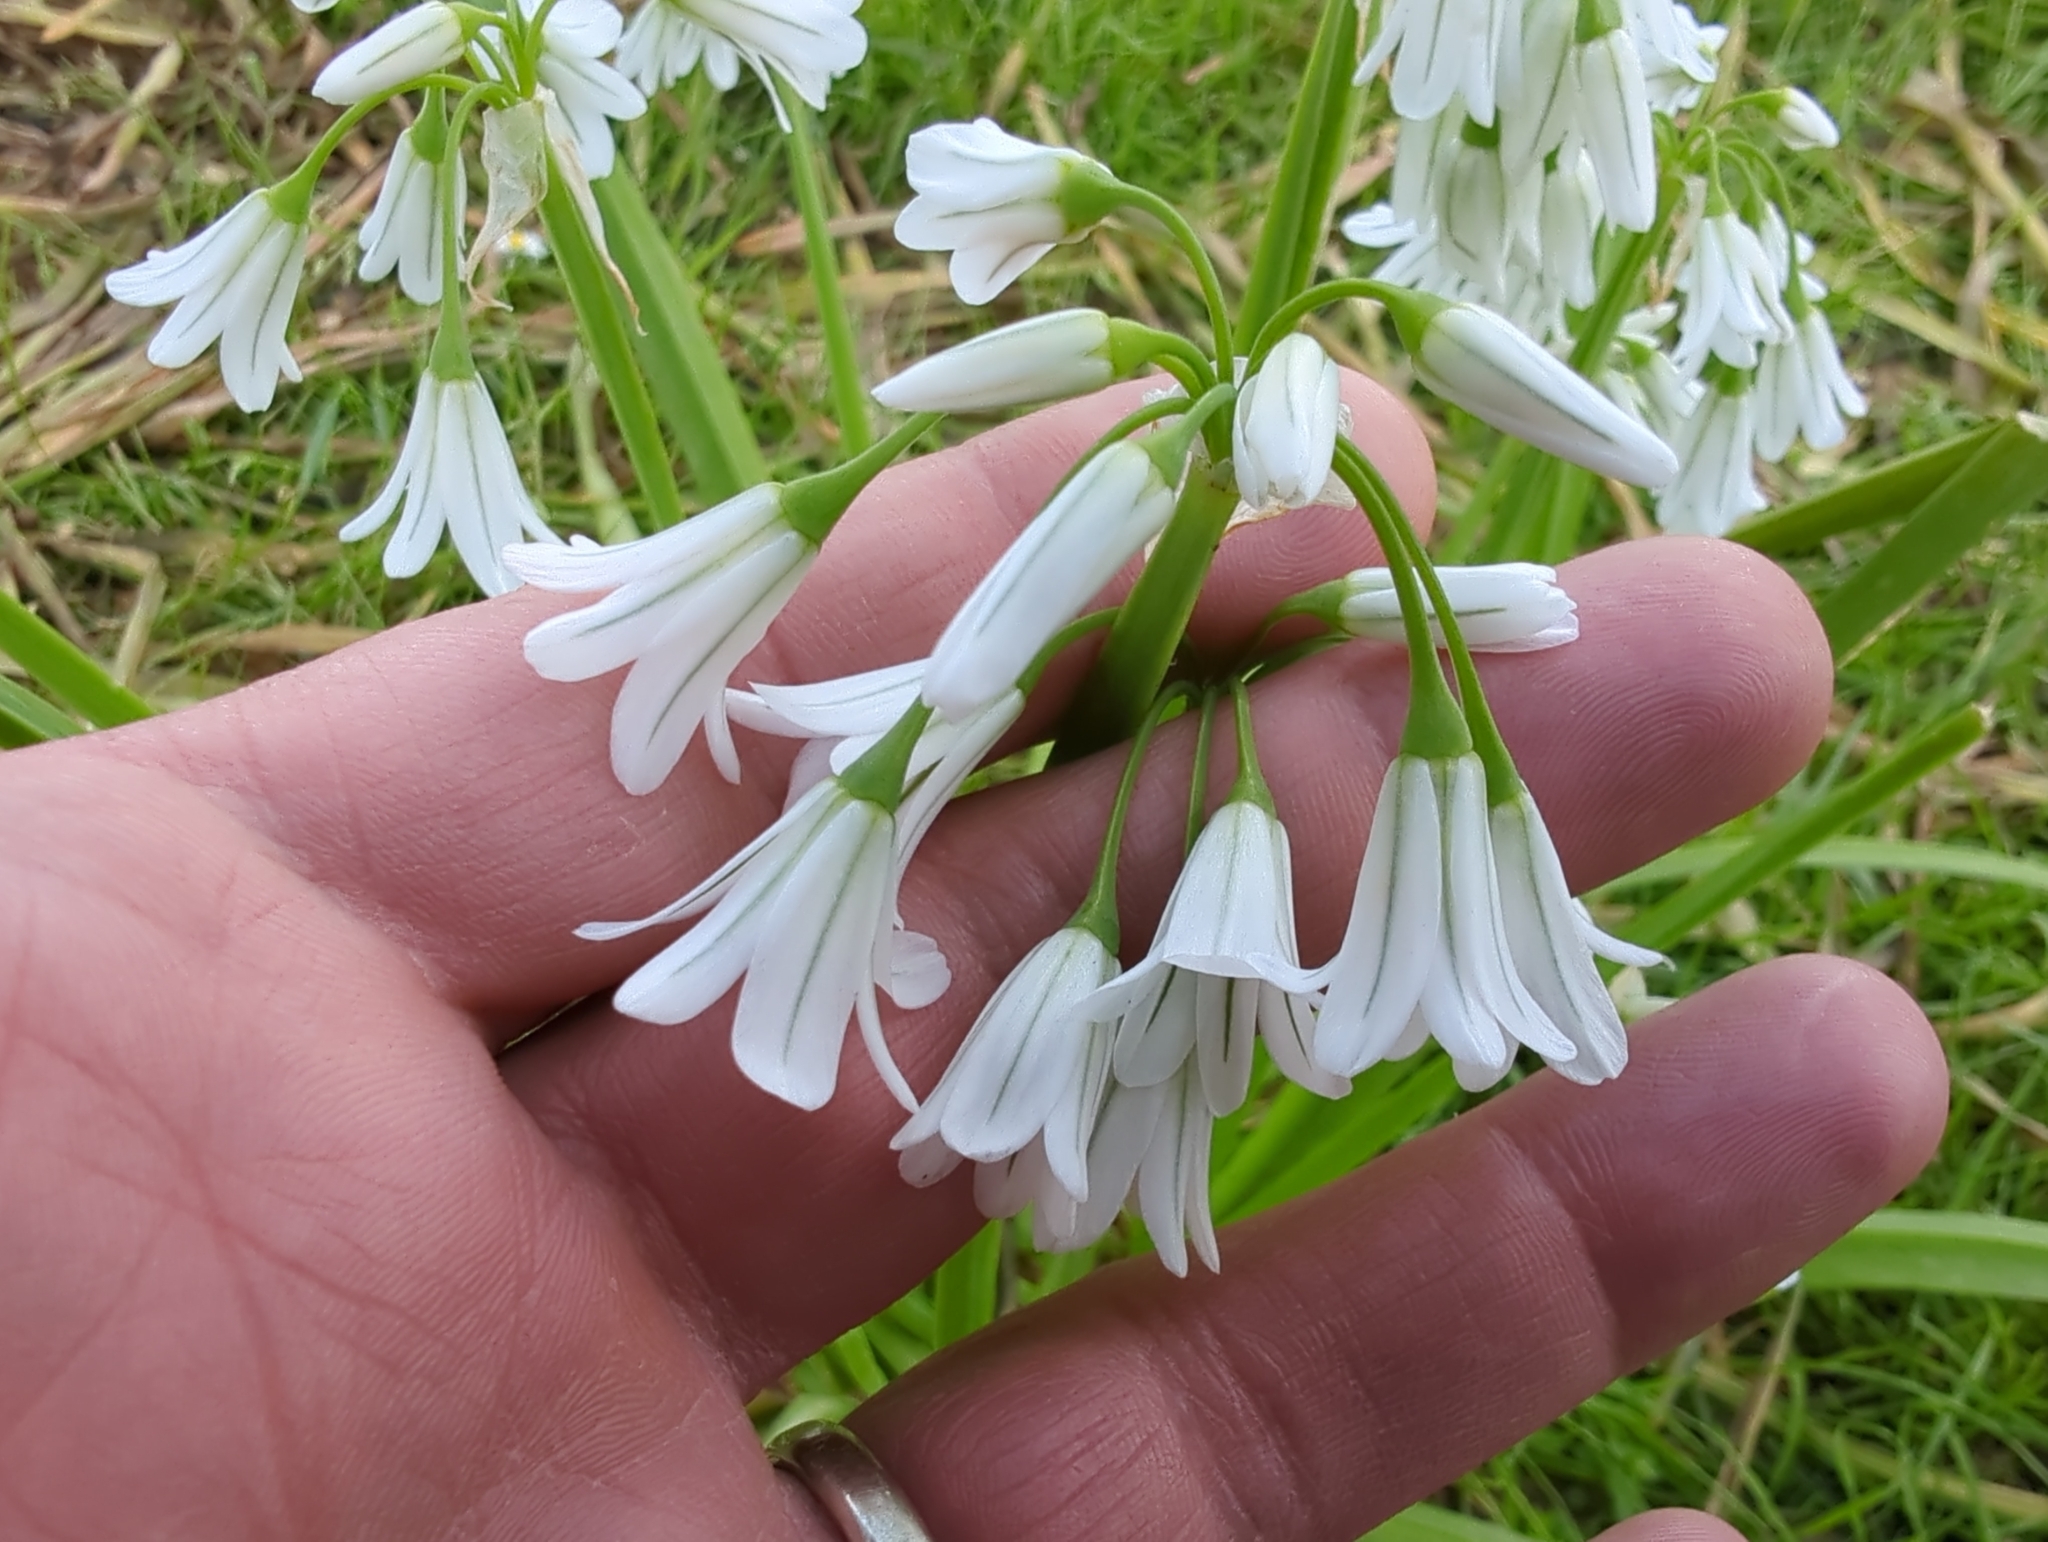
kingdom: Plantae
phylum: Tracheophyta
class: Liliopsida
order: Asparagales
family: Amaryllidaceae
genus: Allium
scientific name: Allium triquetrum
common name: Three-cornered garlic
